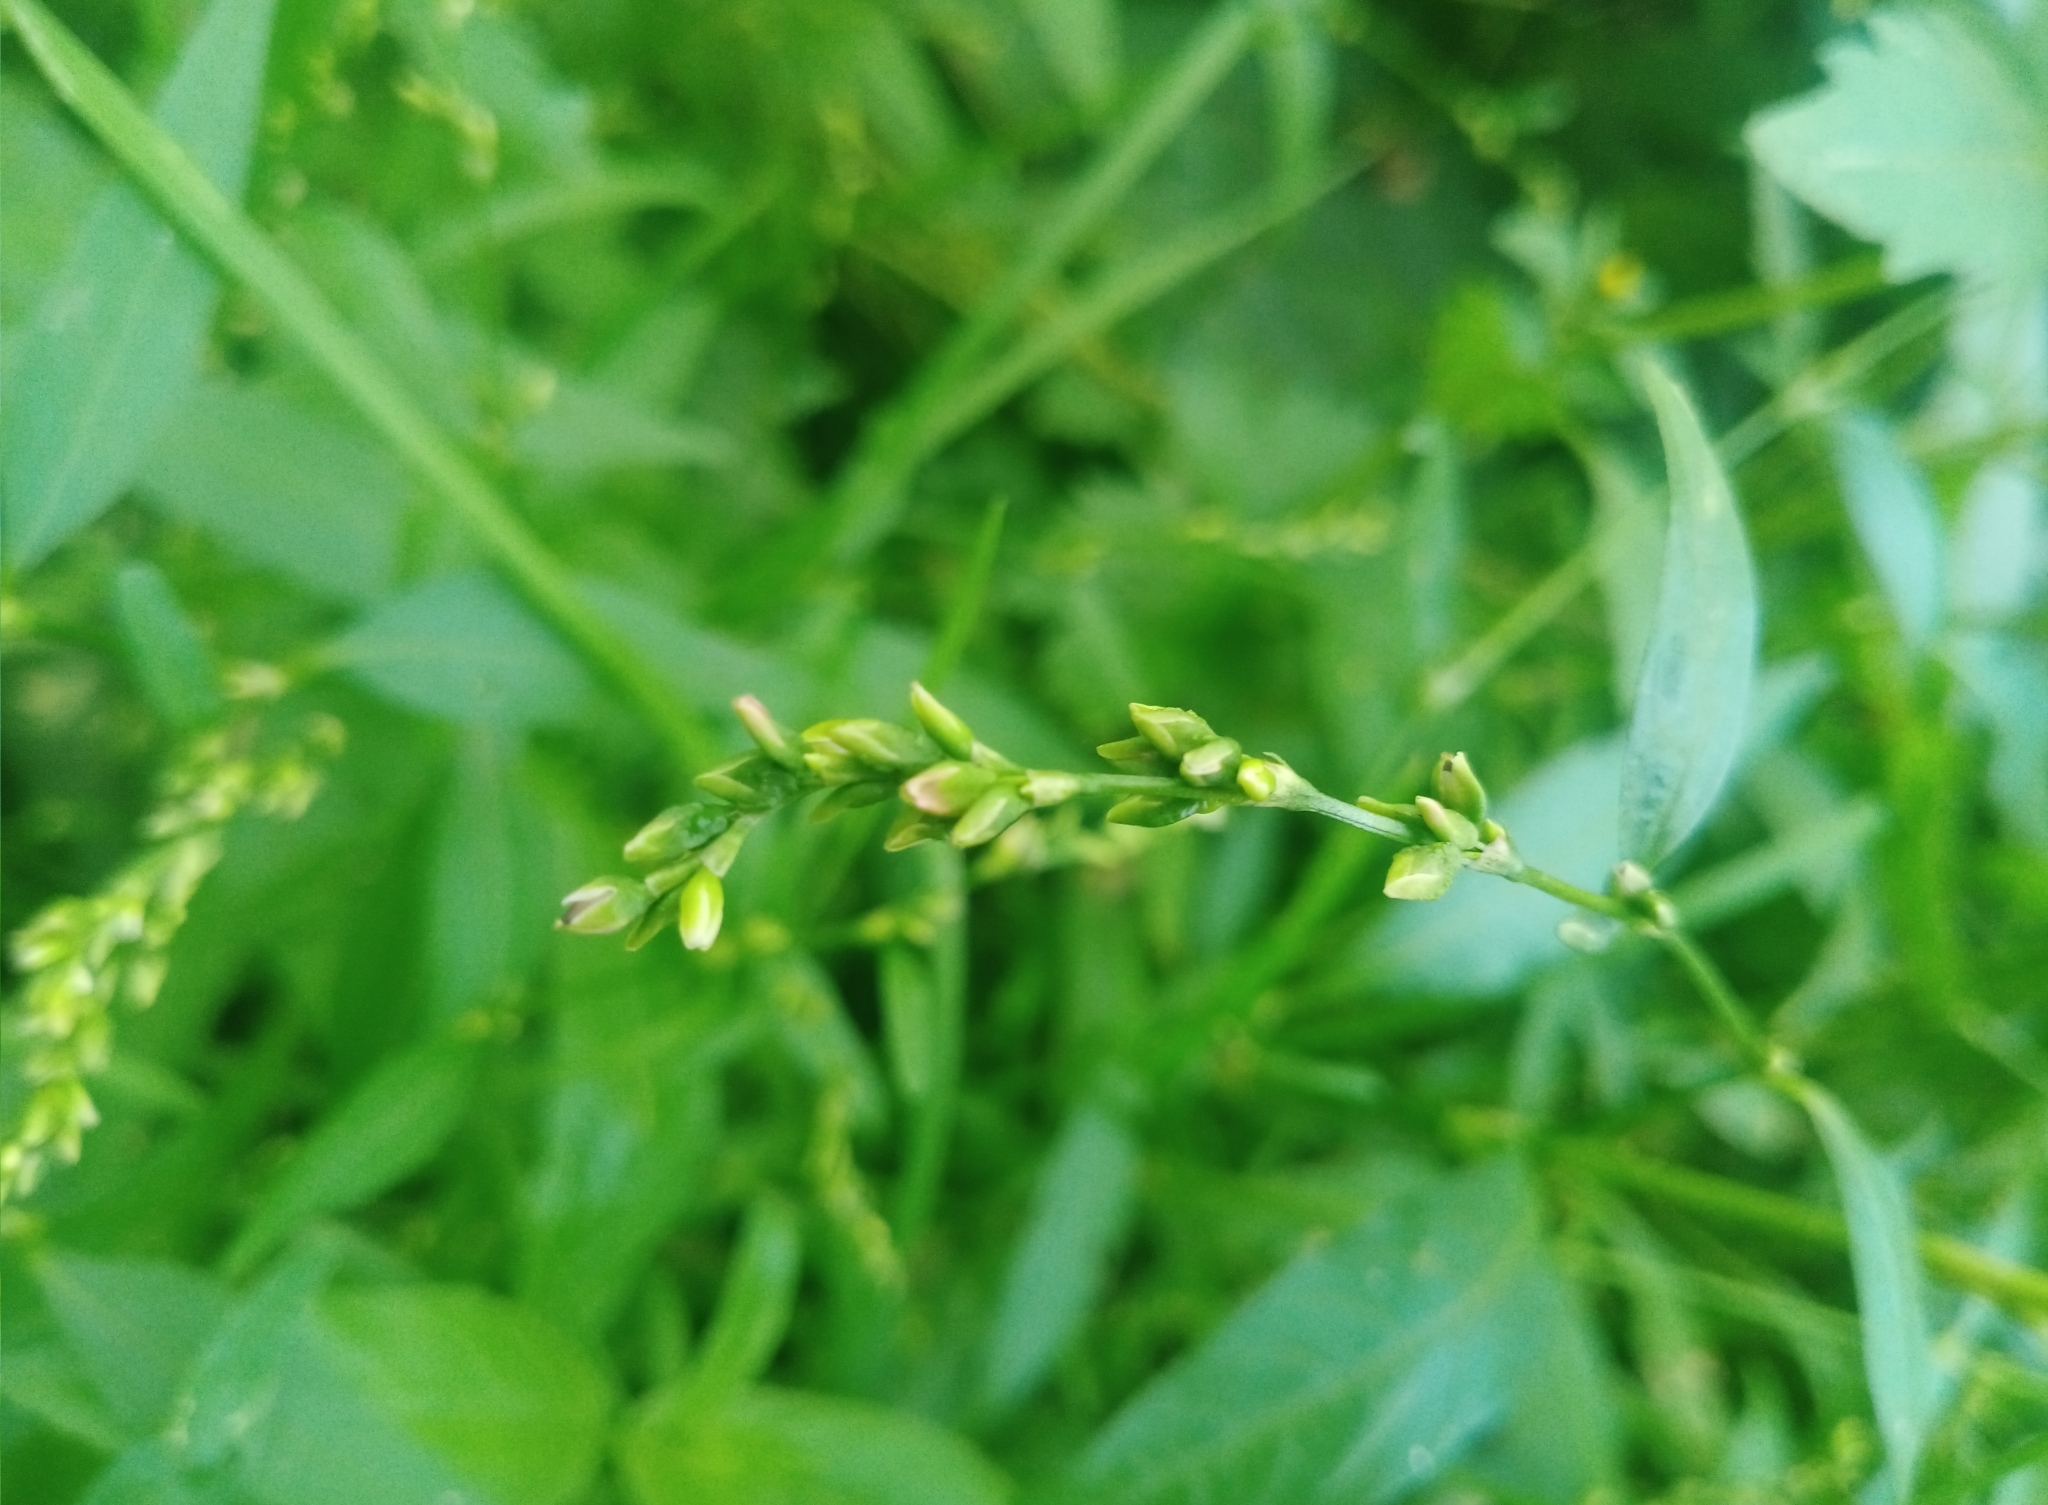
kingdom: Plantae
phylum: Tracheophyta
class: Magnoliopsida
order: Caryophyllales
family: Polygonaceae
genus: Persicaria
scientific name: Persicaria hydropiper
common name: Water-pepper
